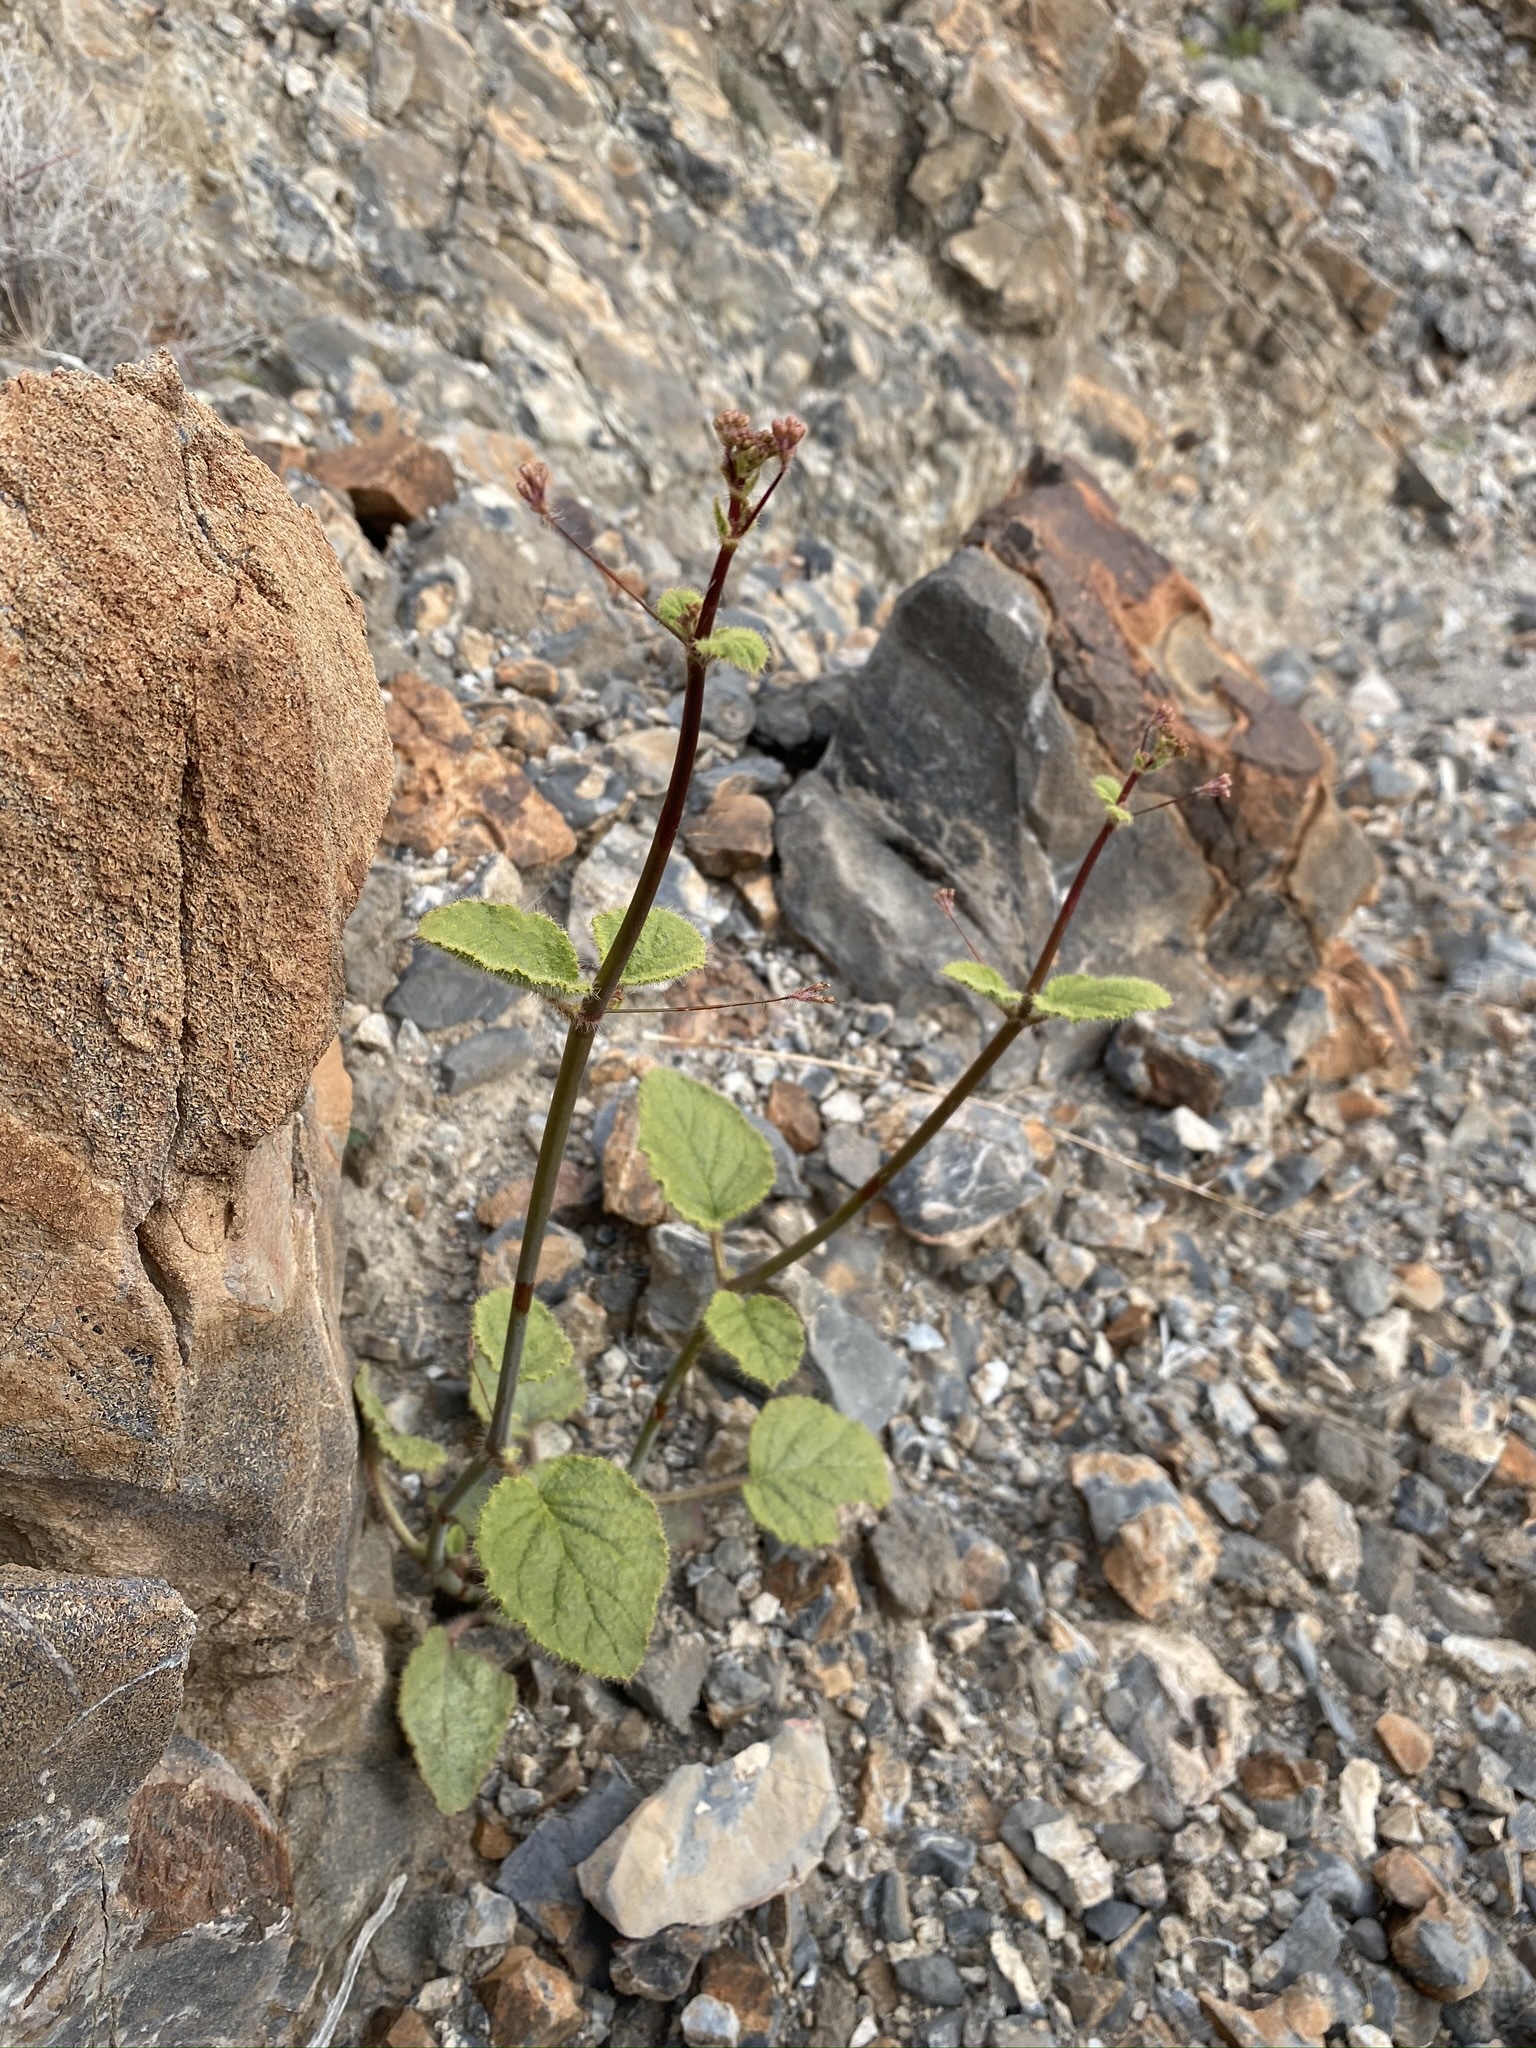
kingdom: Plantae
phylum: Tracheophyta
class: Magnoliopsida
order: Caryophyllales
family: Nyctaginaceae
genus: Anulocaulis
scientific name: Anulocaulis annulatus
